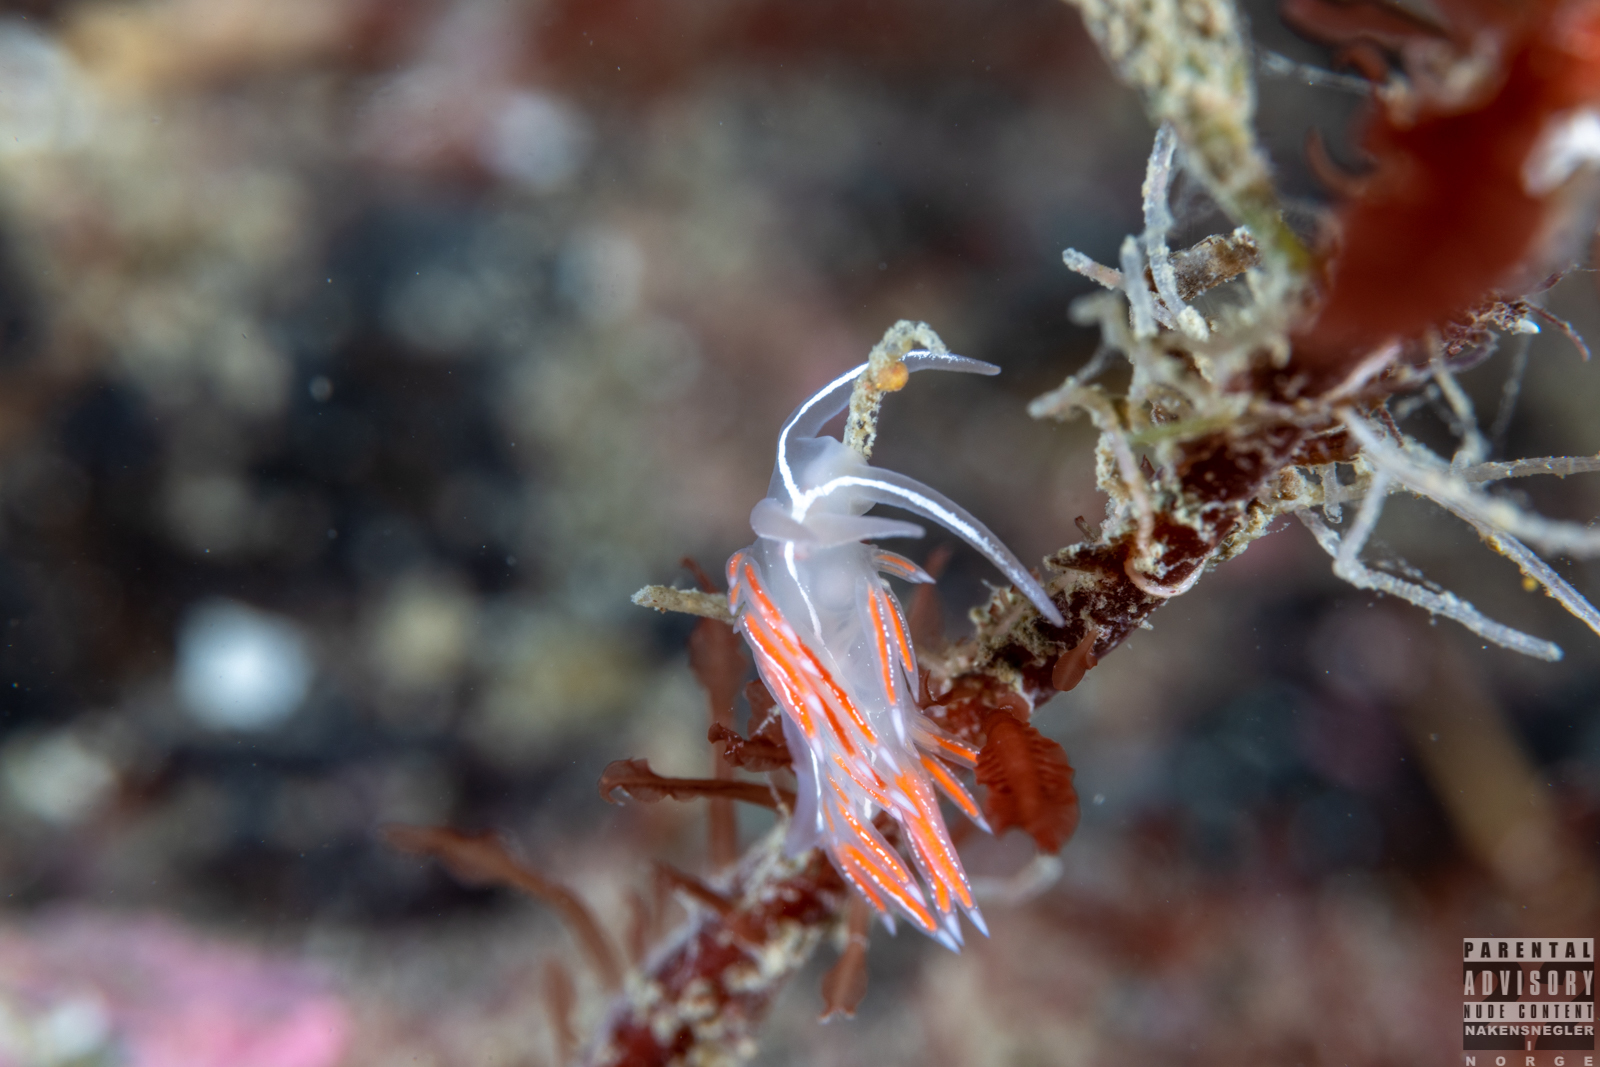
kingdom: Animalia
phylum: Mollusca
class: Gastropoda
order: Nudibranchia
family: Coryphellidae
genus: Coryphella
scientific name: Coryphella chriskaugei
